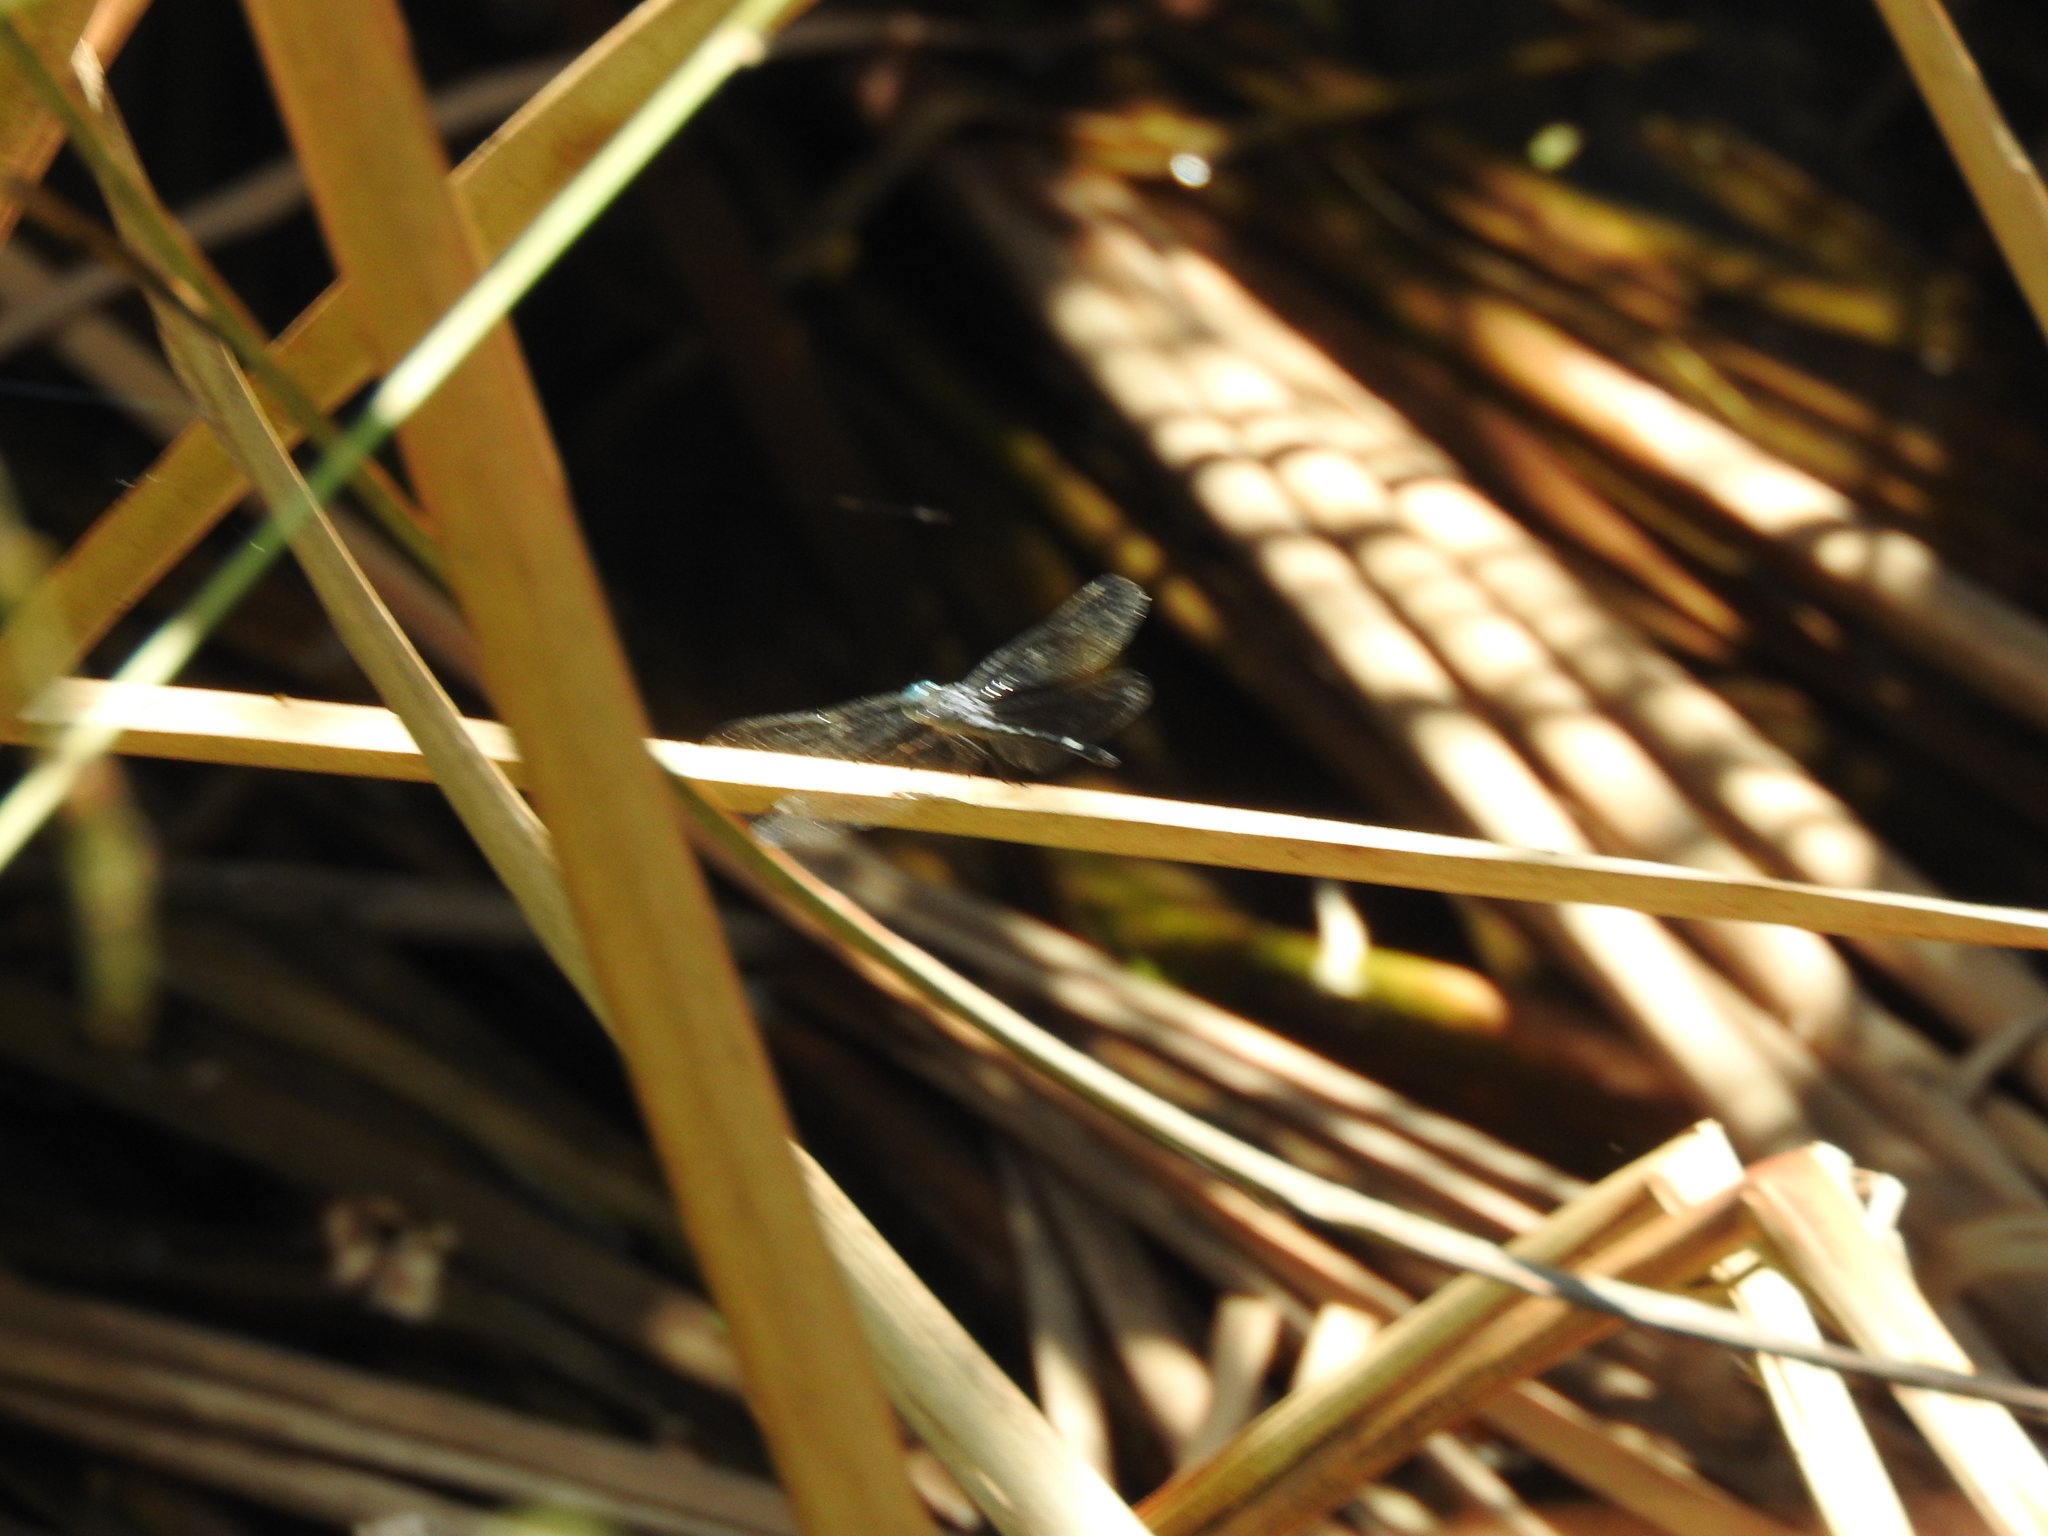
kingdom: Animalia
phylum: Arthropoda
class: Insecta
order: Odonata
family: Libellulidae
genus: Micrathyria
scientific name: Micrathyria aequalis
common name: Spot-tailed dasher
